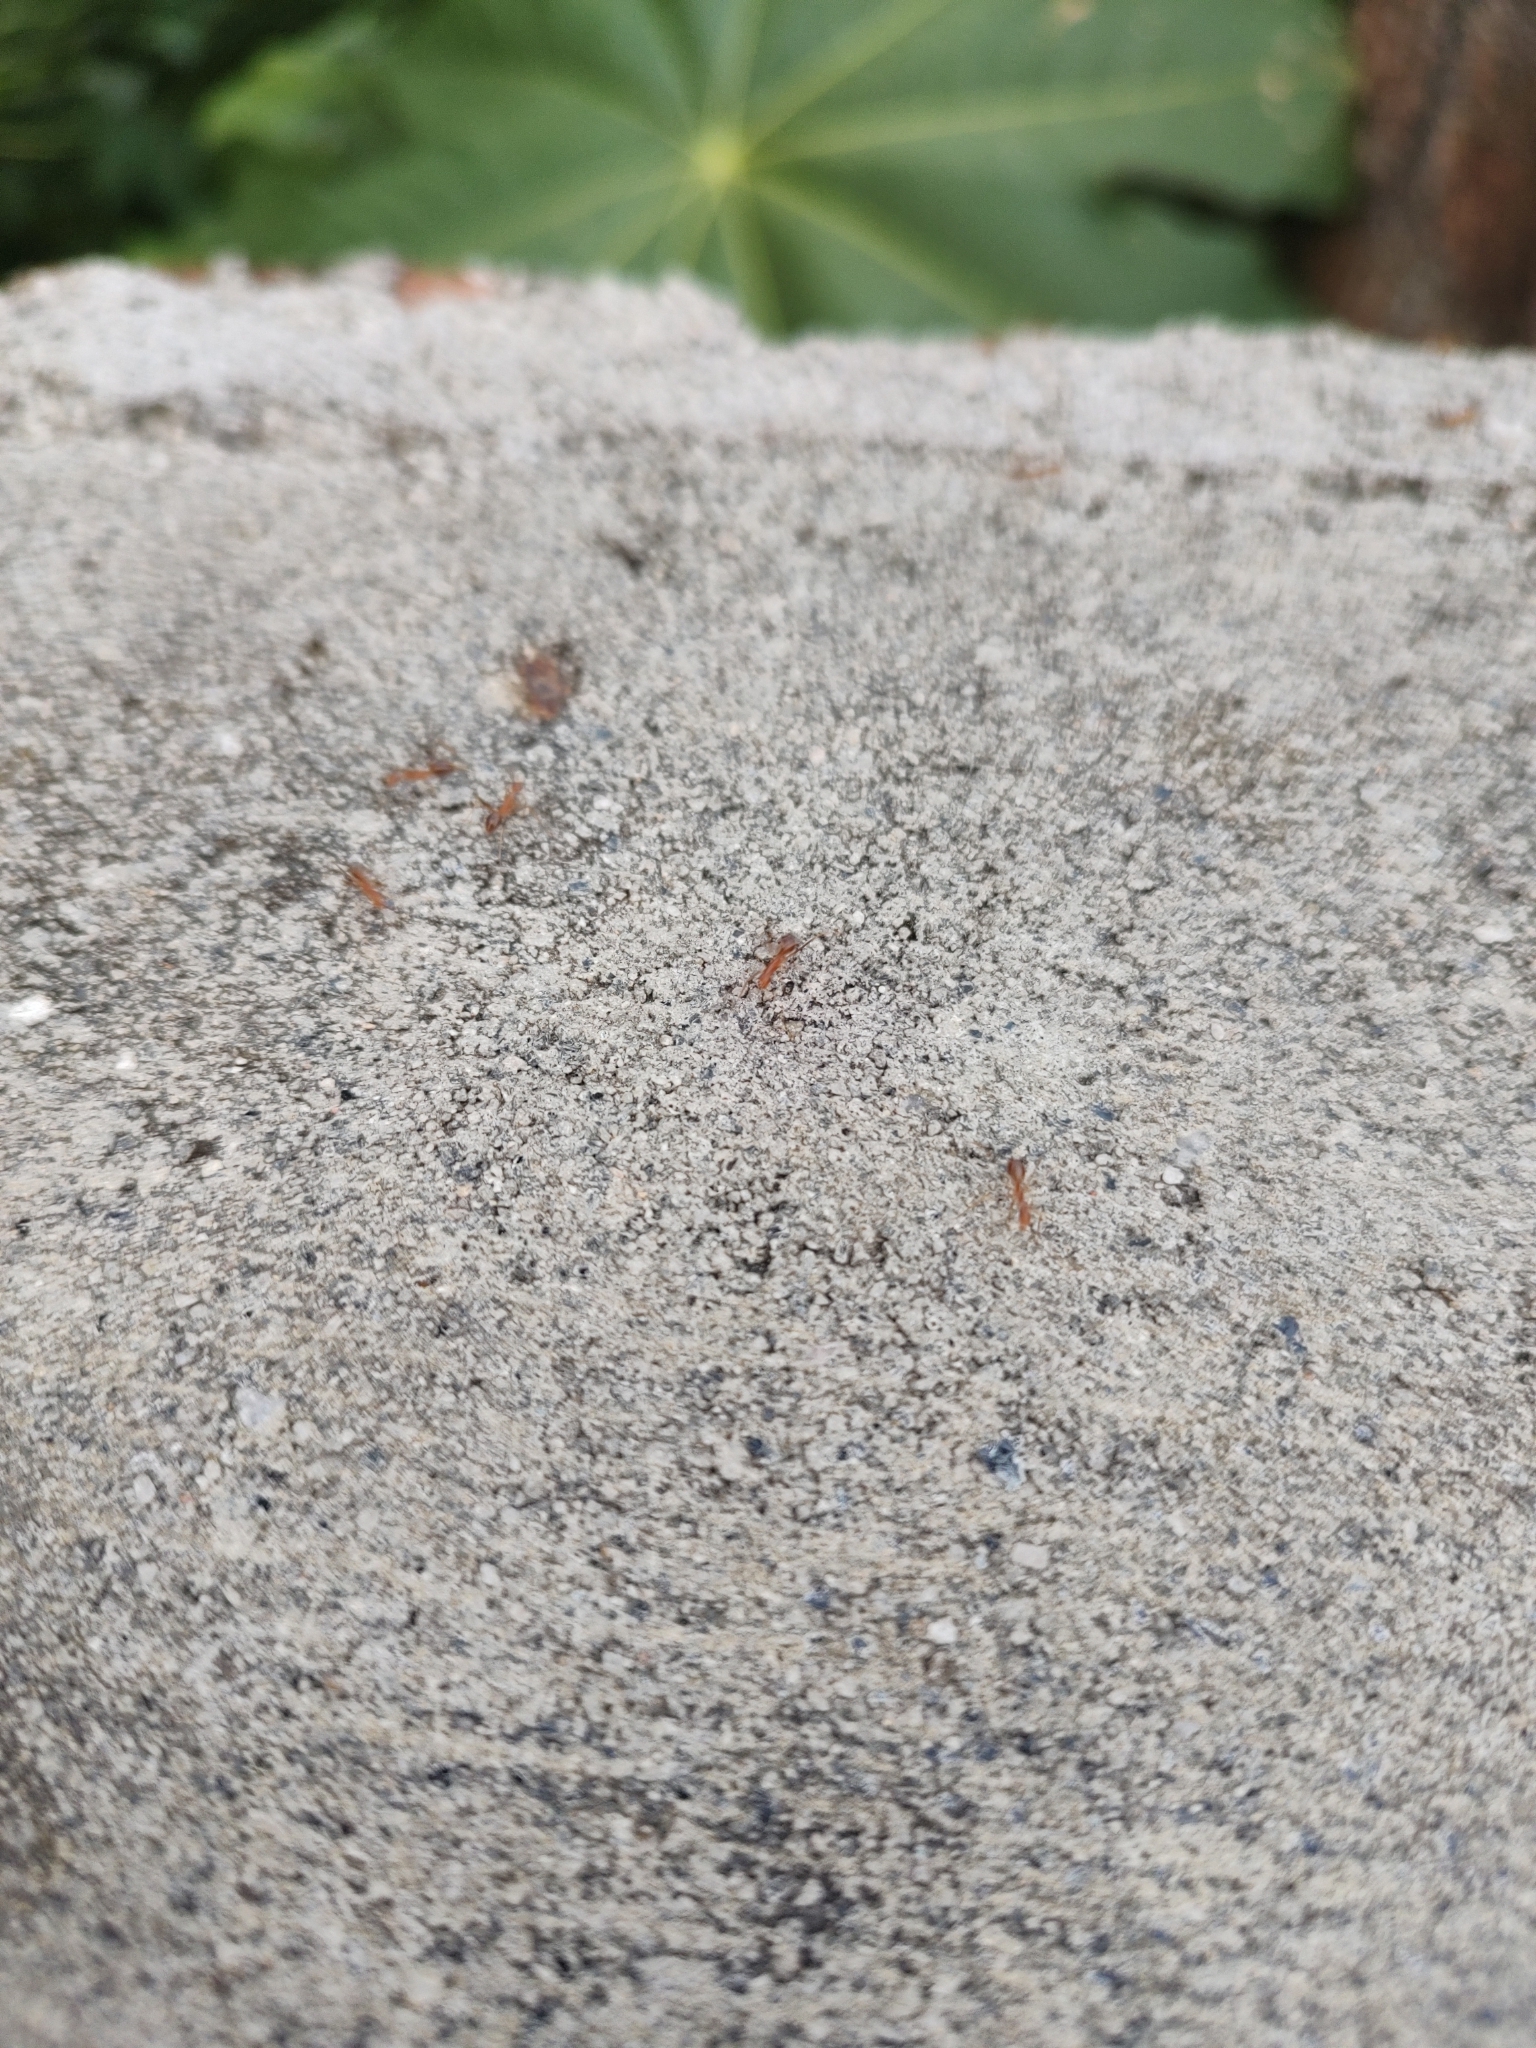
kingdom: Animalia
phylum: Arthropoda
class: Insecta
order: Hymenoptera
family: Formicidae
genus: Anoplolepis
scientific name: Anoplolepis gracilipes
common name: Ant
